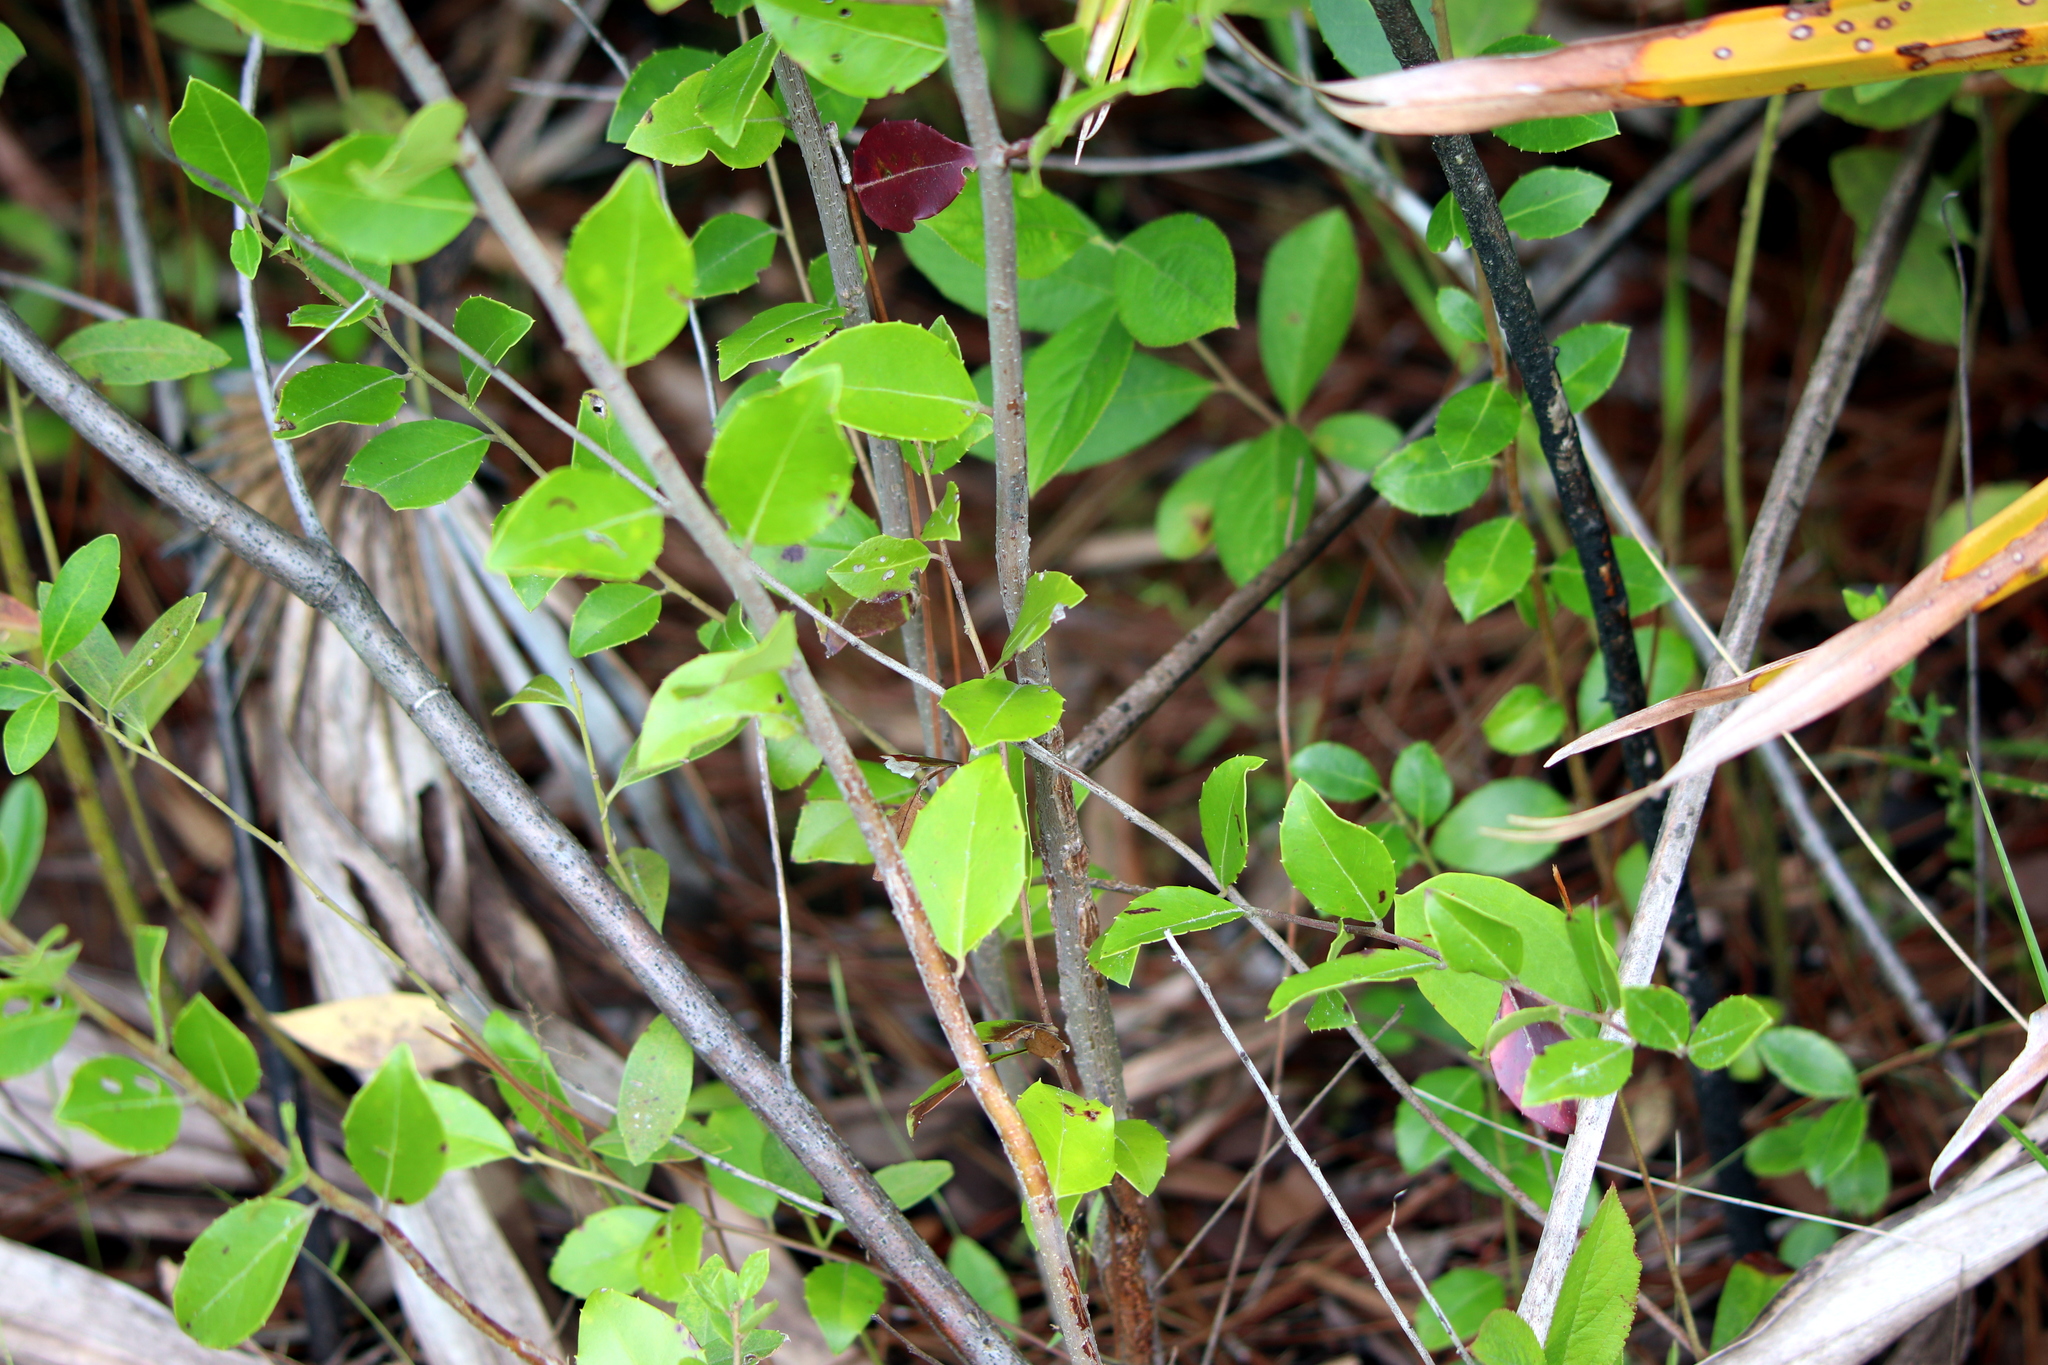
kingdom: Plantae
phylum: Tracheophyta
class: Magnoliopsida
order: Aquifoliales
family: Aquifoliaceae
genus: Ilex
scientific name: Ilex glabra
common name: Bitter gallberry
